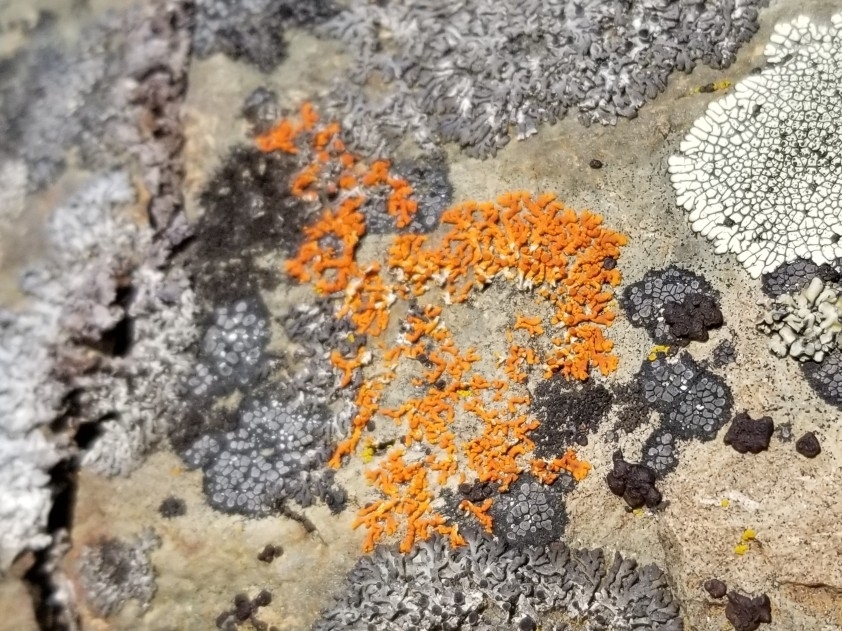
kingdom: Fungi
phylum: Ascomycota
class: Lecanoromycetes
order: Teloschistales
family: Teloschistaceae
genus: Xanthoria
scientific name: Xanthoria elegans
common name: Elegant sunburst lichen
